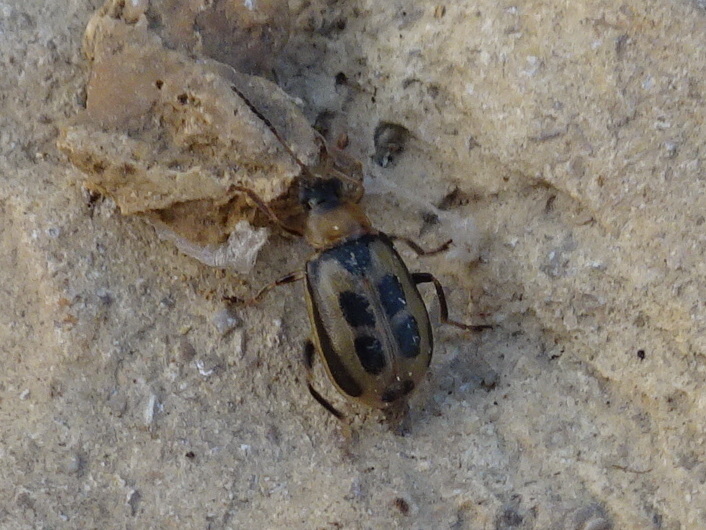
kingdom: Animalia
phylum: Arthropoda
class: Insecta
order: Coleoptera
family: Chrysomelidae
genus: Cerotoma
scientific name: Cerotoma trifurcata
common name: Bean leaf beetle
